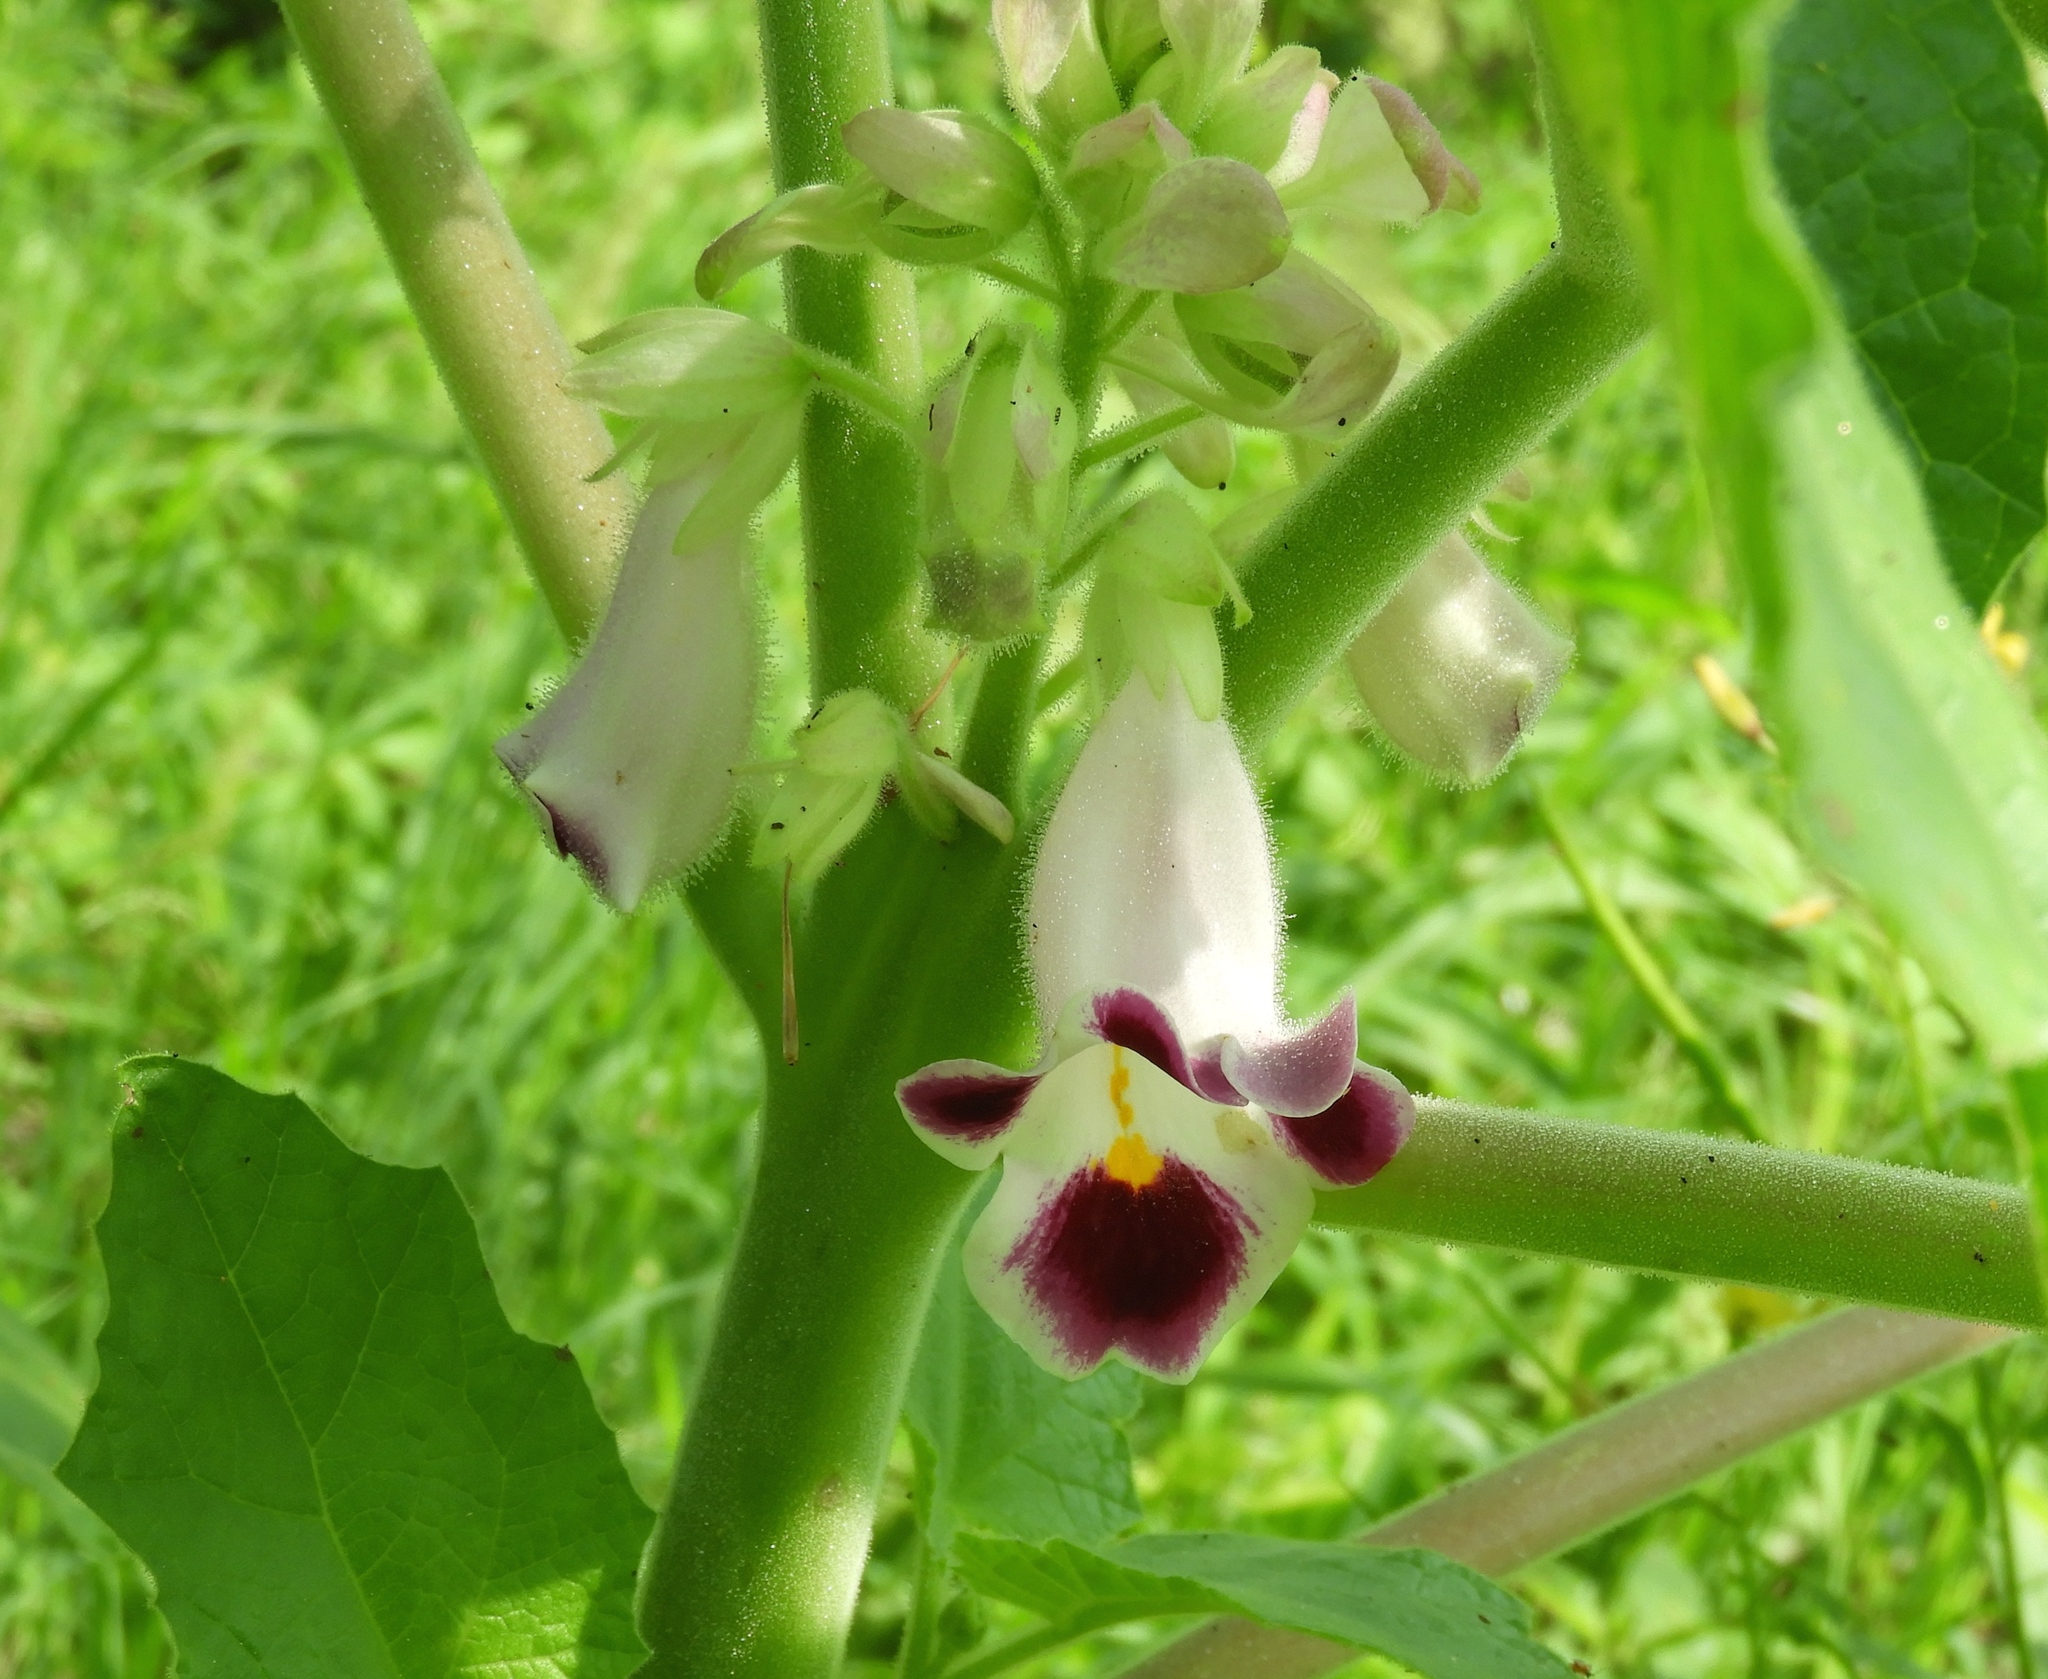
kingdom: Plantae
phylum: Tracheophyta
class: Magnoliopsida
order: Lamiales
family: Martyniaceae
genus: Martynia
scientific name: Martynia annua
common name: Tiger's-claw
